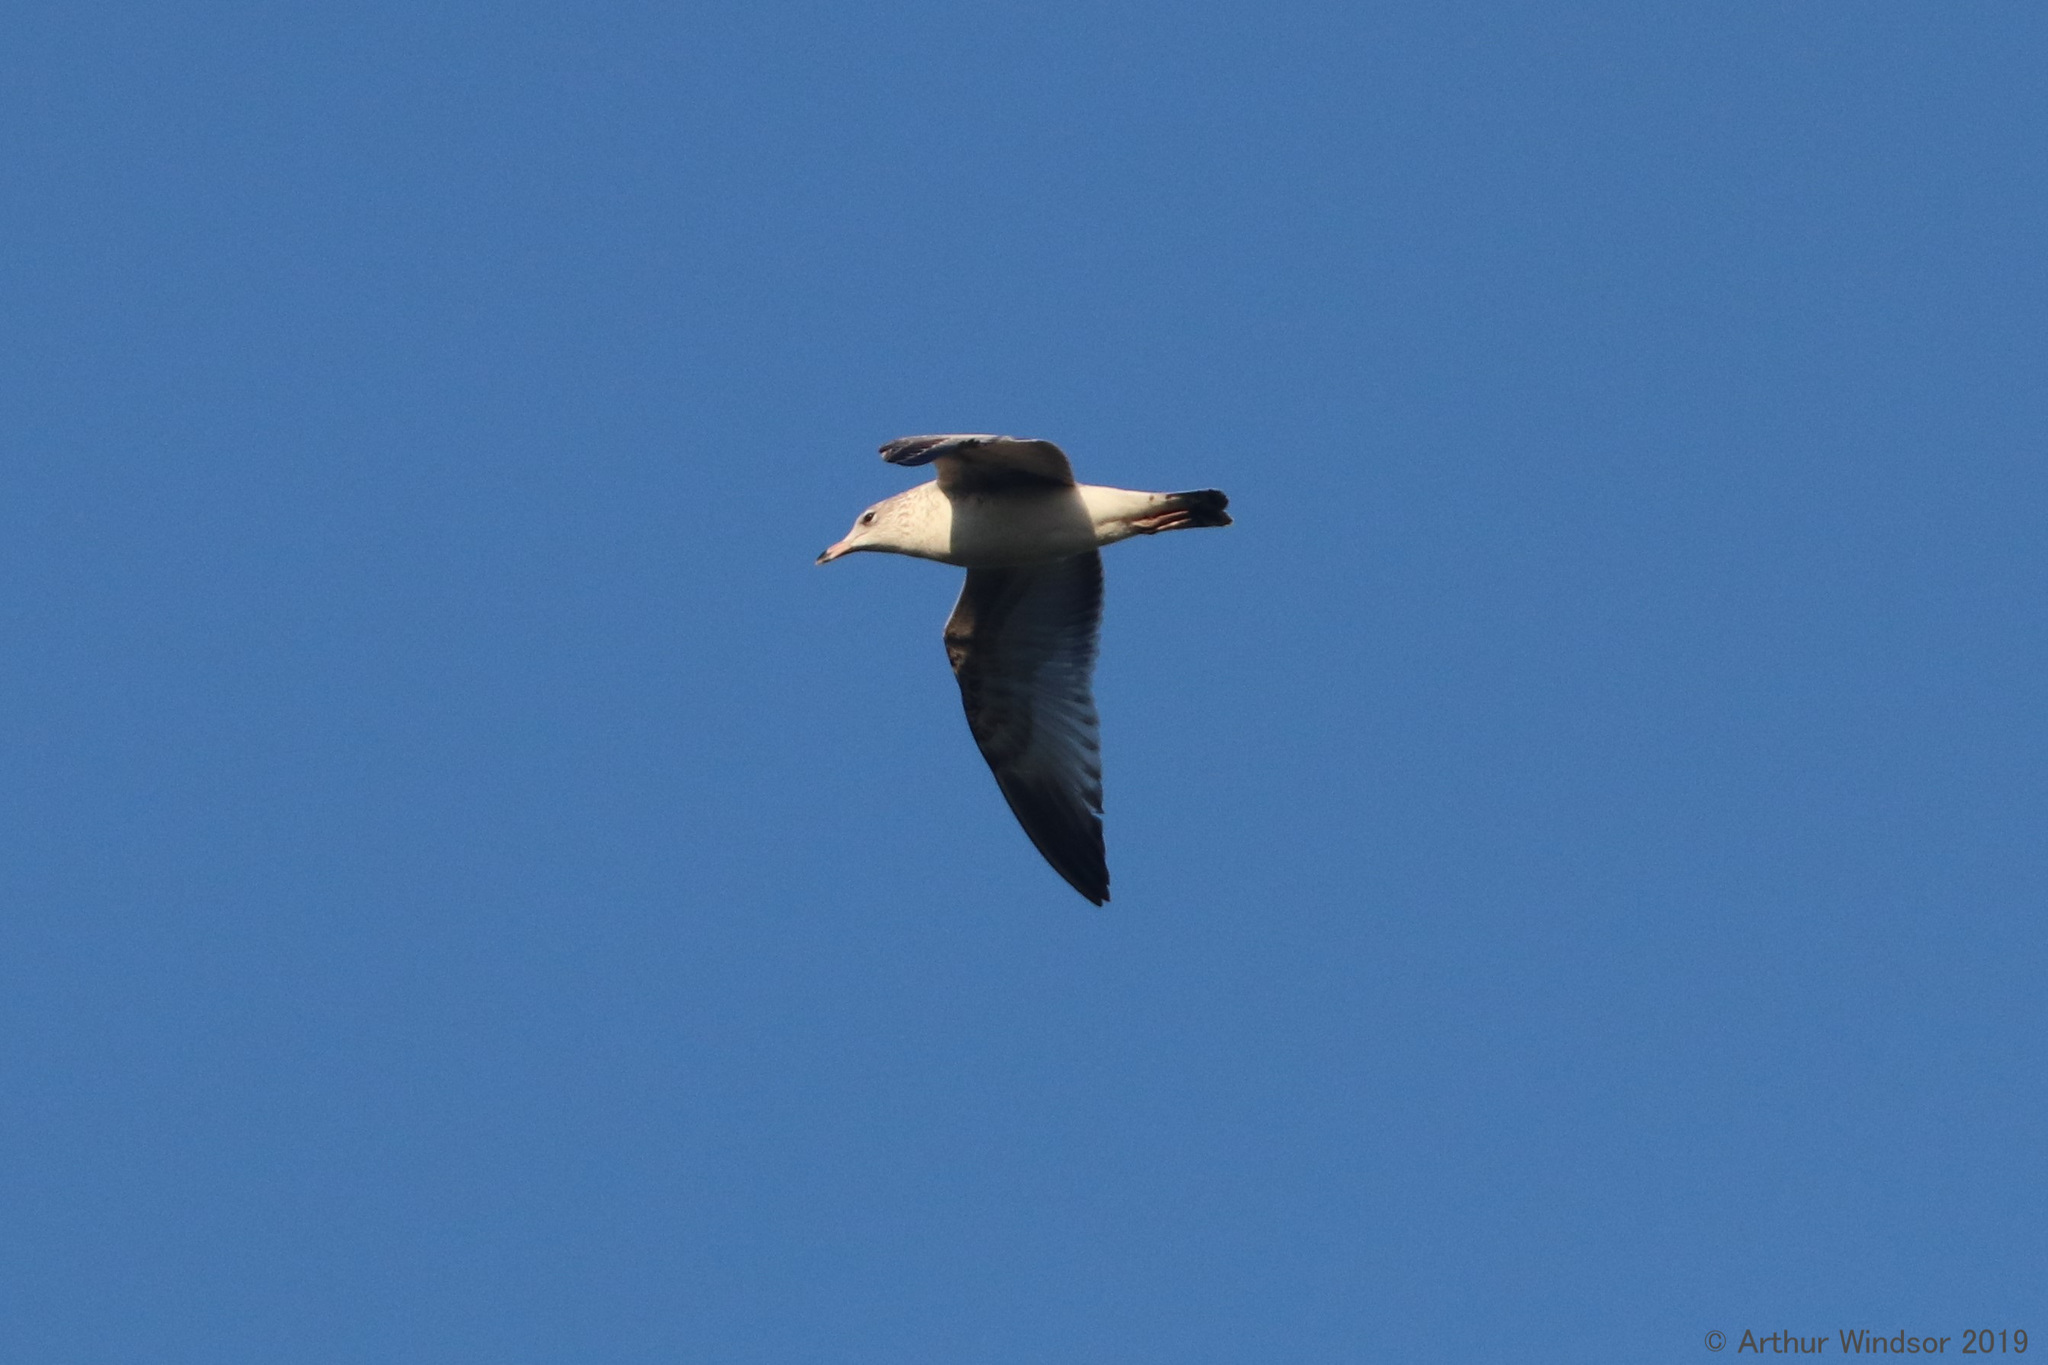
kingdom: Animalia
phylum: Chordata
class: Aves
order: Charadriiformes
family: Laridae
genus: Larus
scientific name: Larus delawarensis
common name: Ring-billed gull
